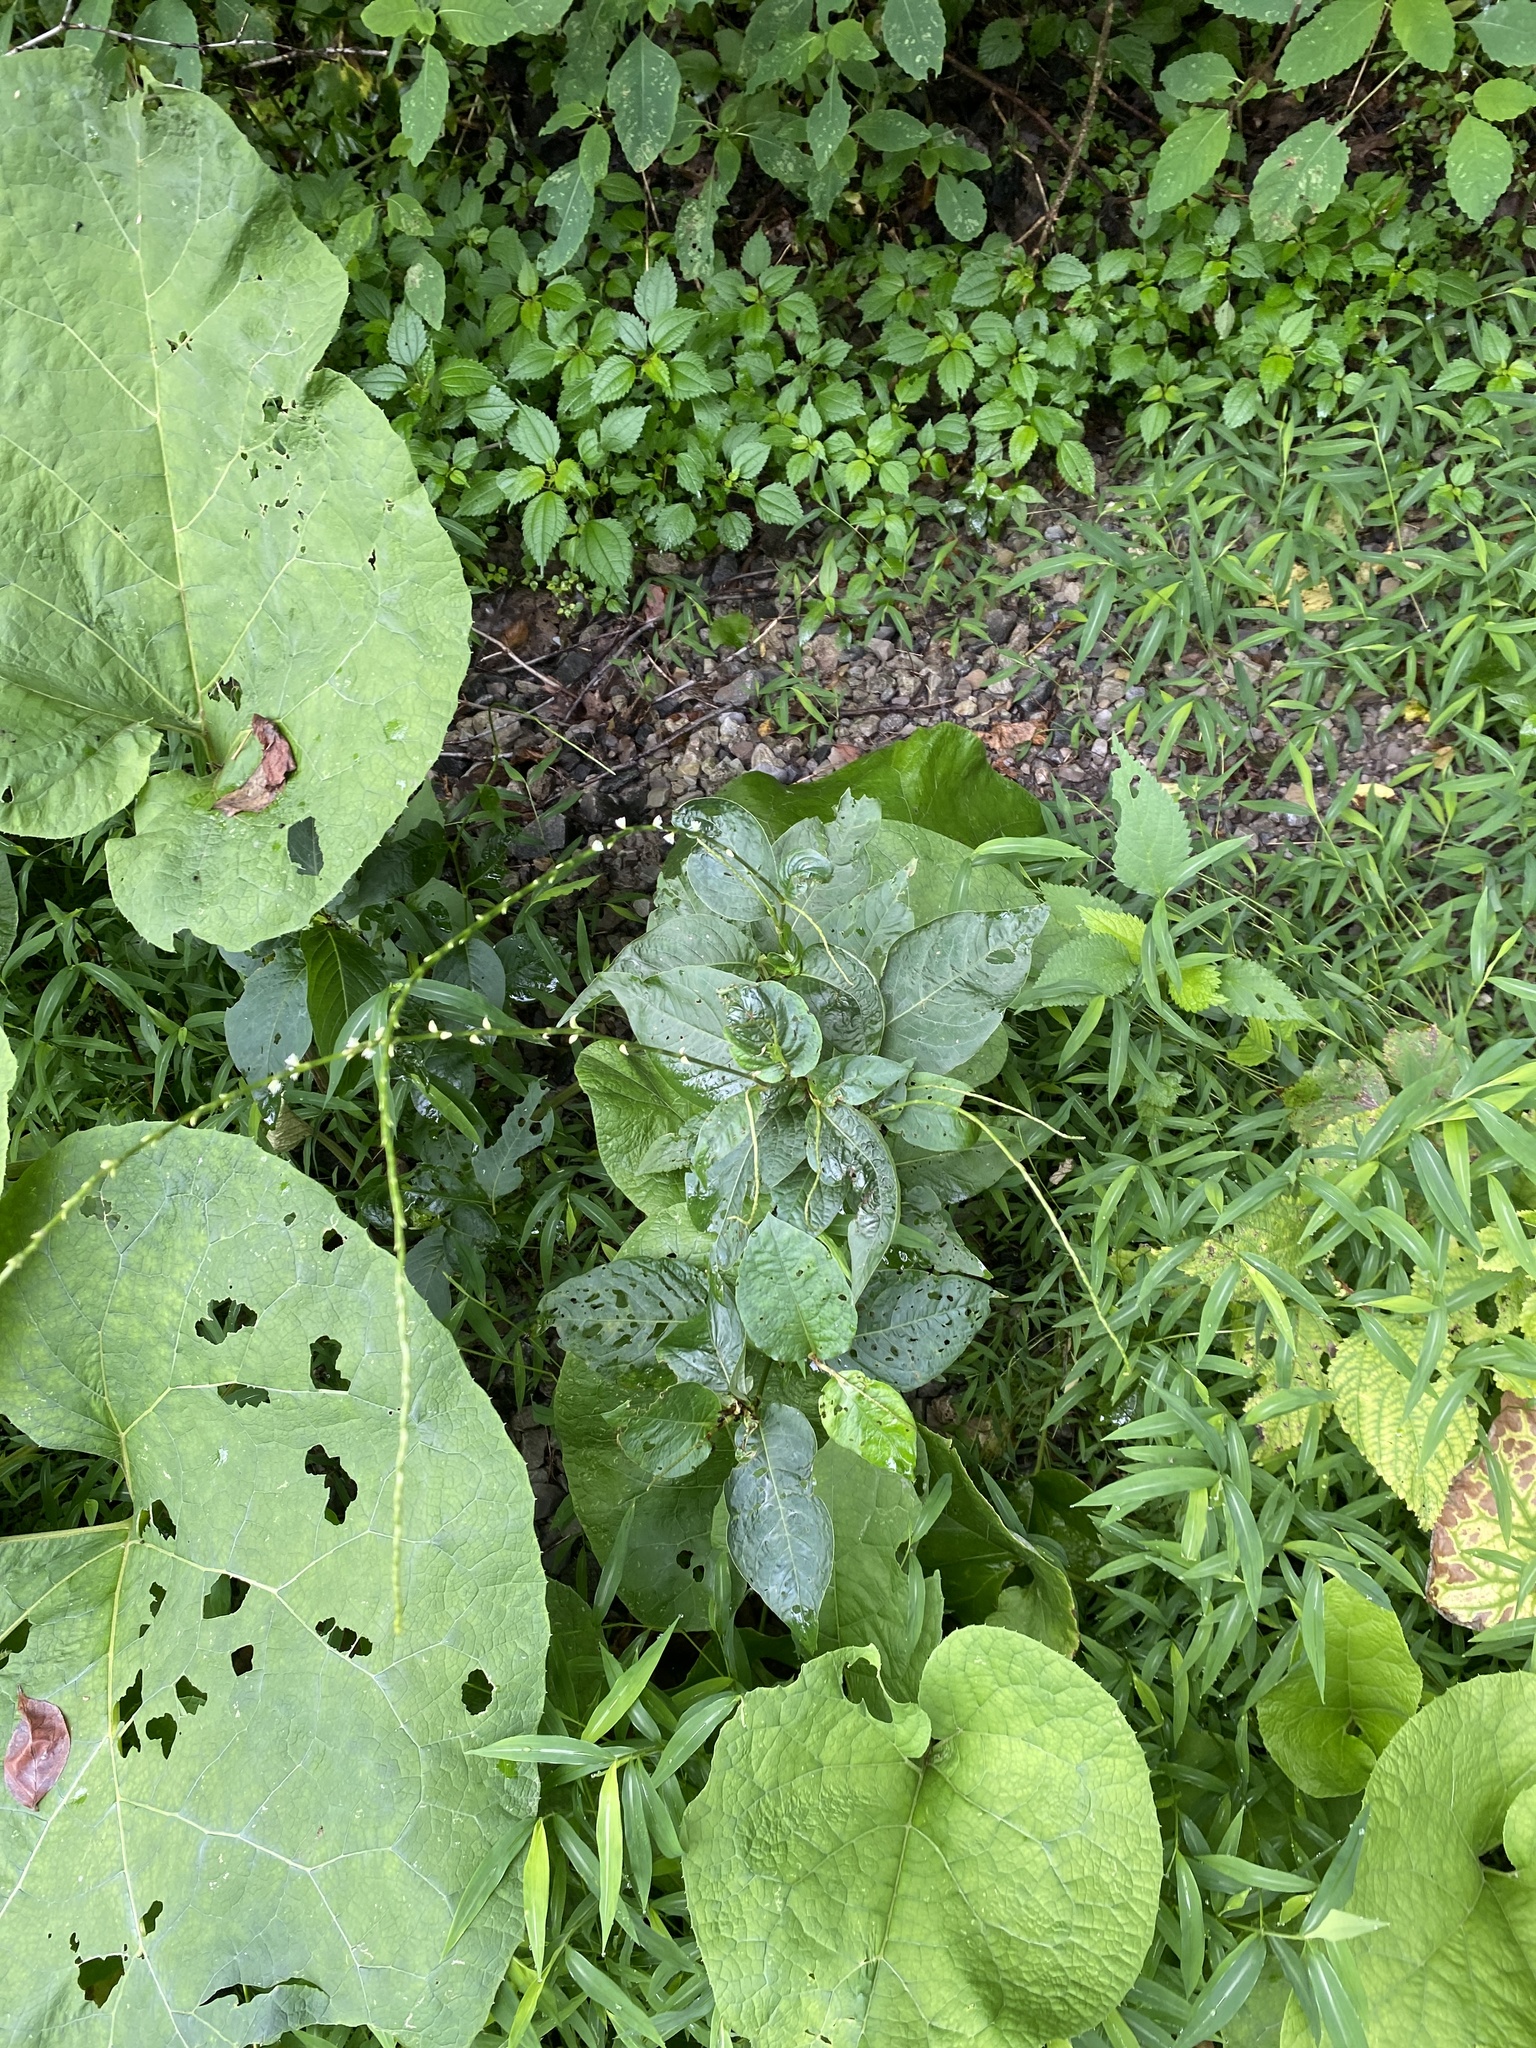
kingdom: Plantae
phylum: Tracheophyta
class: Magnoliopsida
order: Caryophyllales
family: Polygonaceae
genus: Persicaria
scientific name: Persicaria virginiana
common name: Jumpseed
